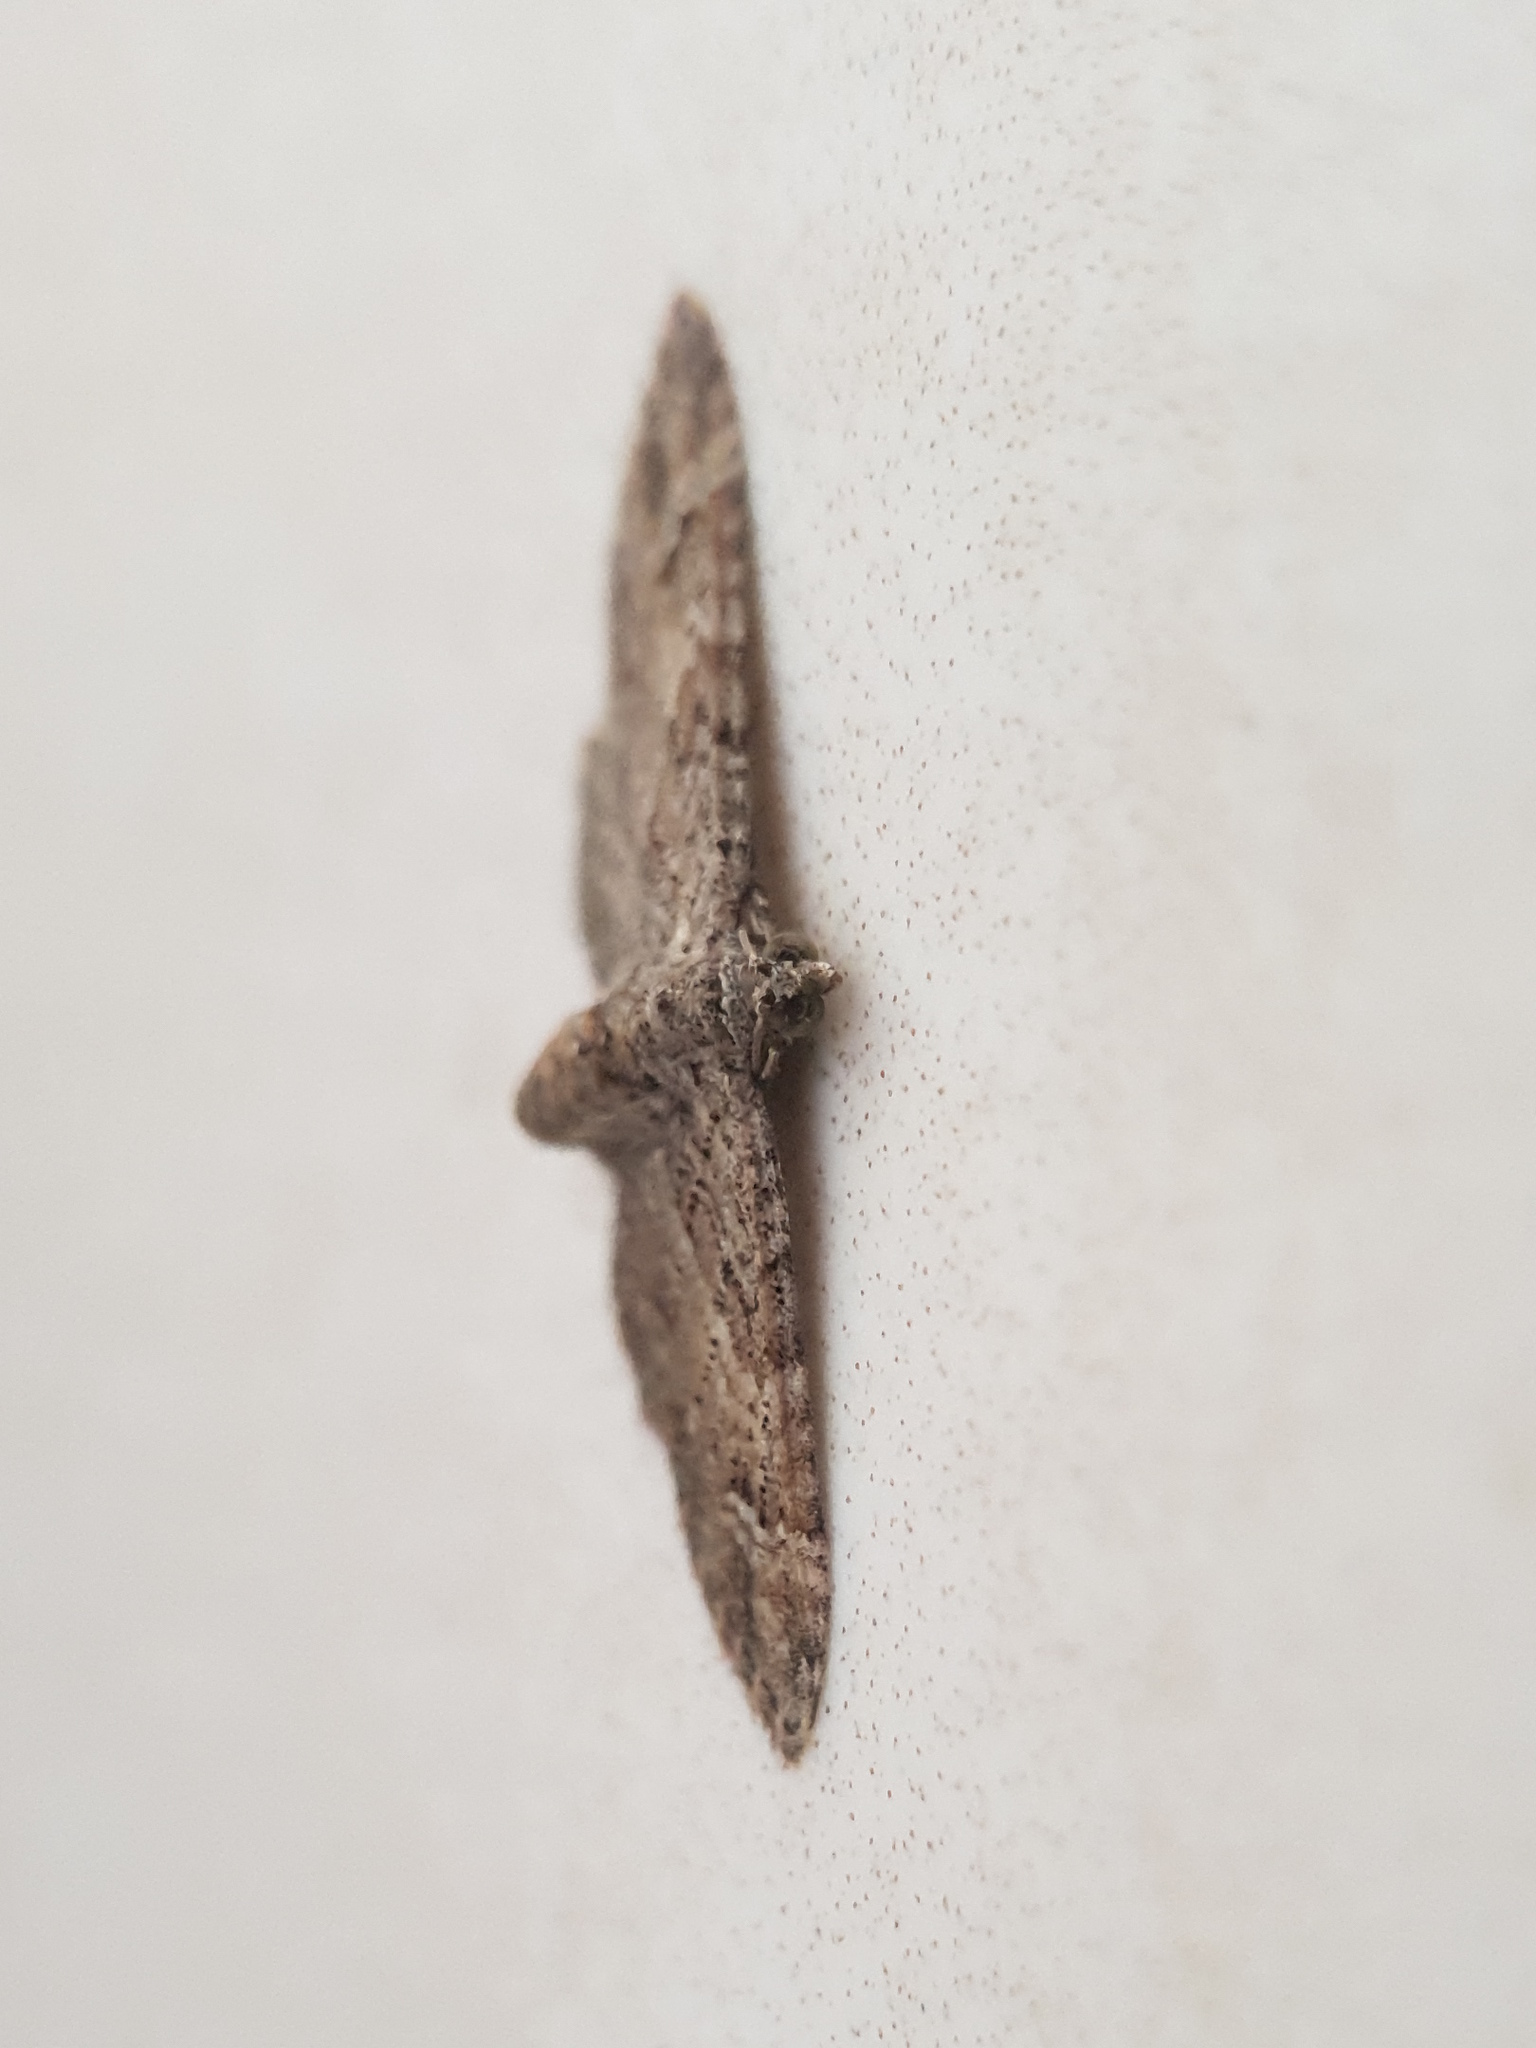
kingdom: Animalia
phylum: Arthropoda
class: Insecta
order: Lepidoptera
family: Geometridae
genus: Gymnoscelis
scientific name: Gymnoscelis rufifasciata
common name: Double-striped pug
